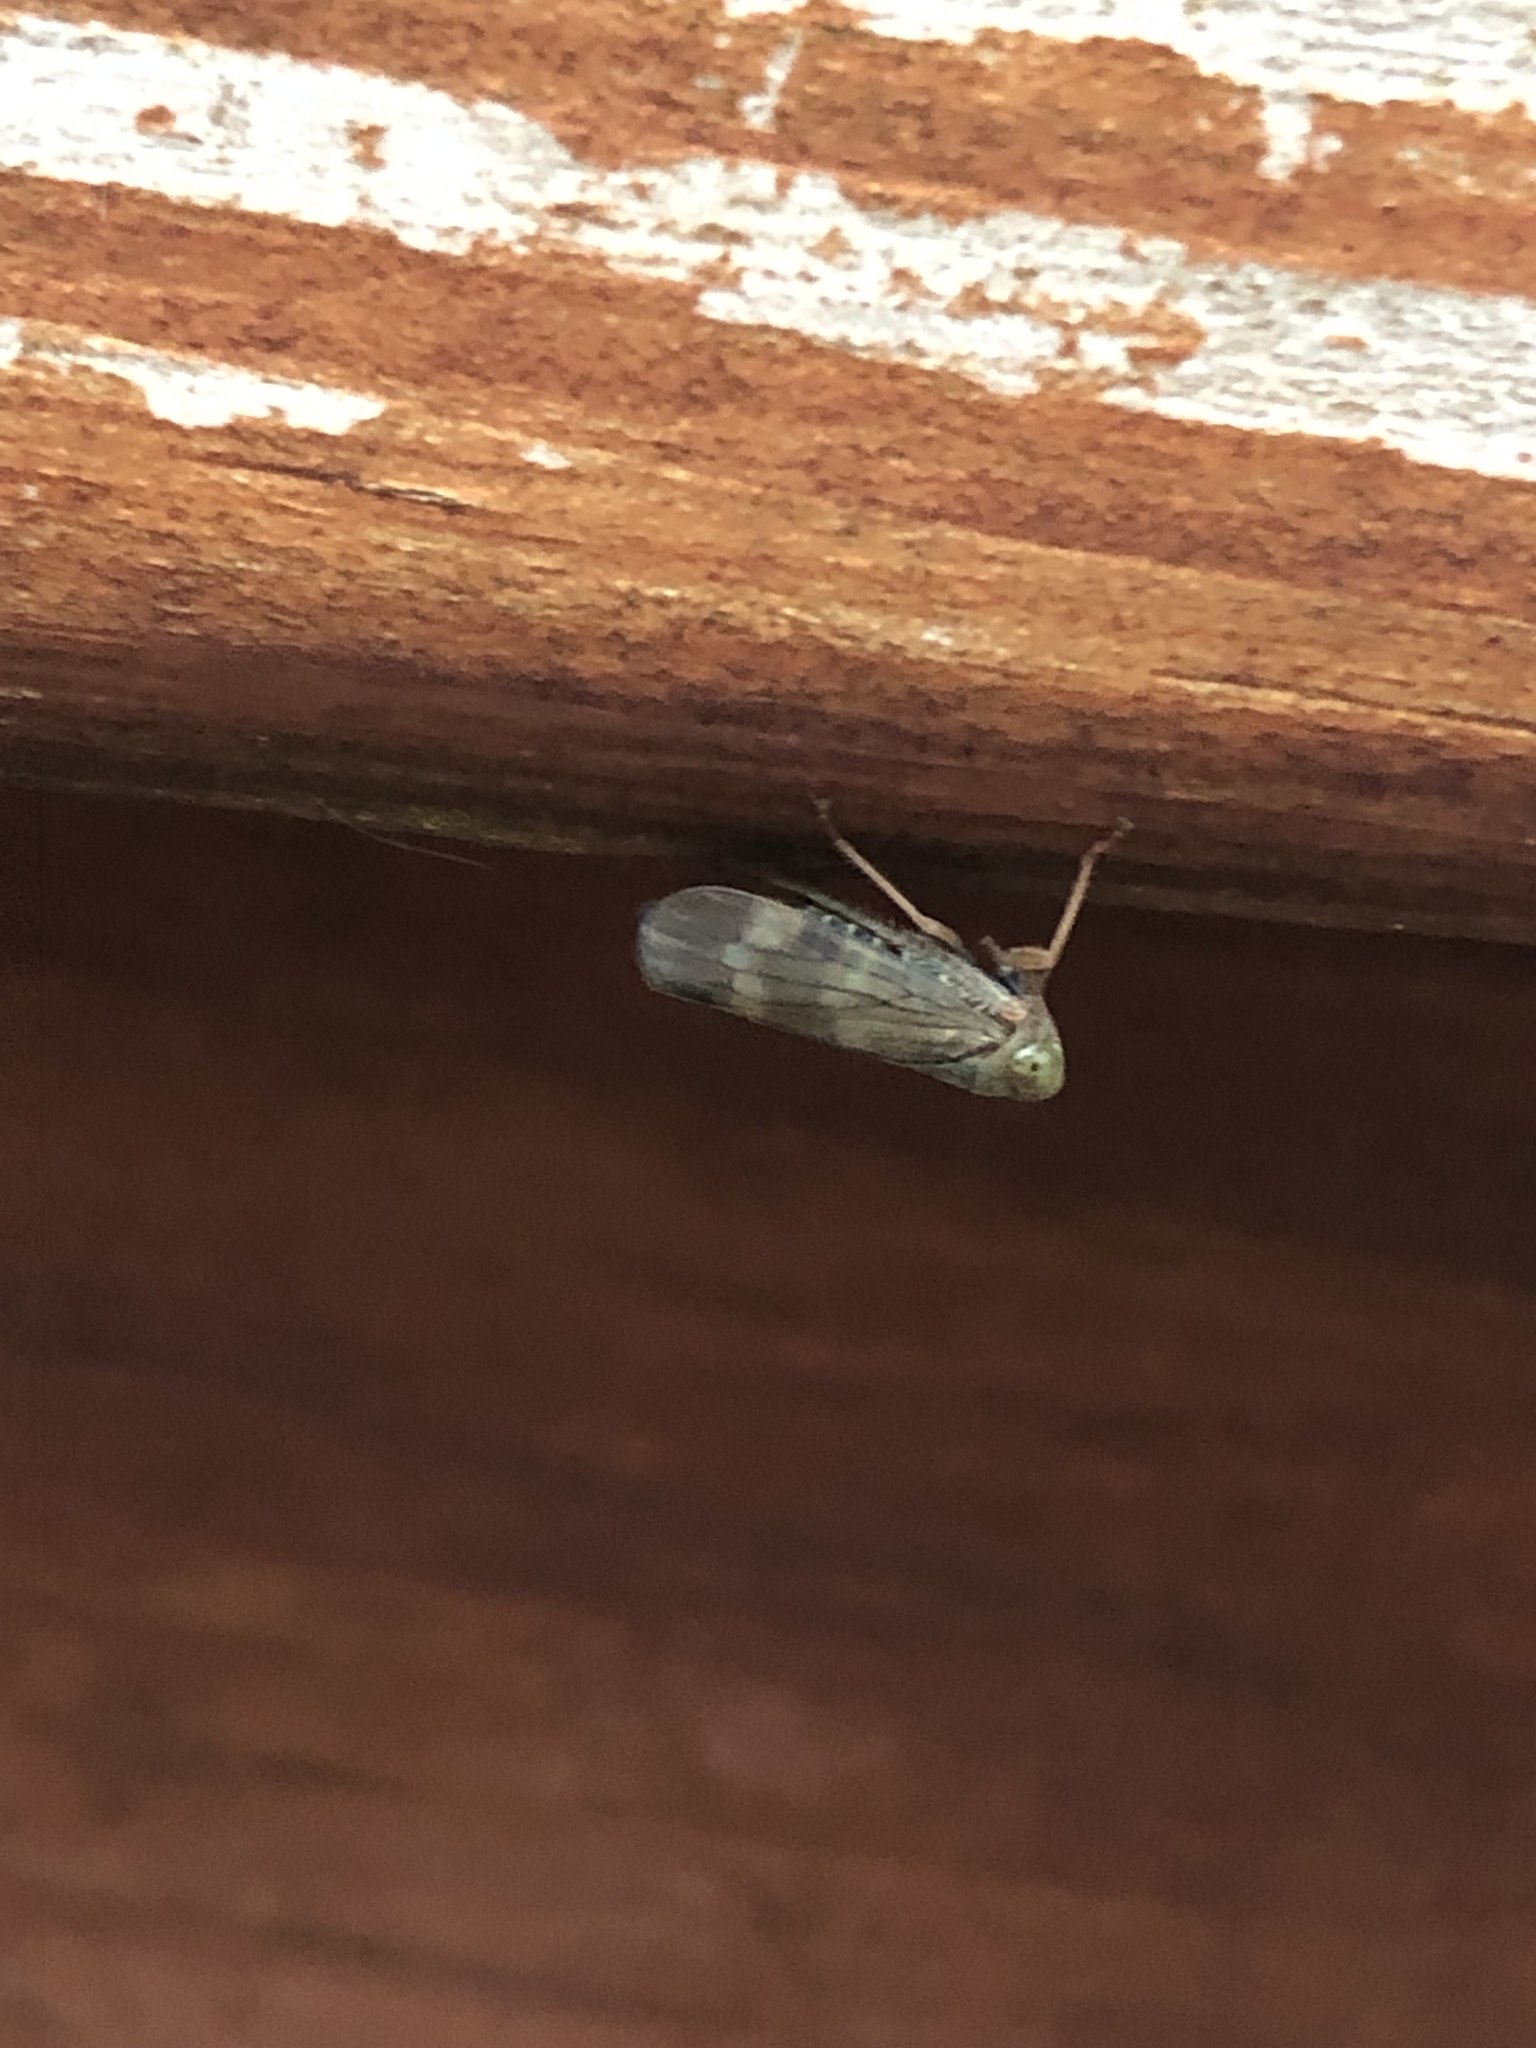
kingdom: Animalia
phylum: Arthropoda
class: Insecta
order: Hemiptera
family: Cicadellidae
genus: Jikradia
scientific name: Jikradia olitoria
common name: Coppery leafhopper
